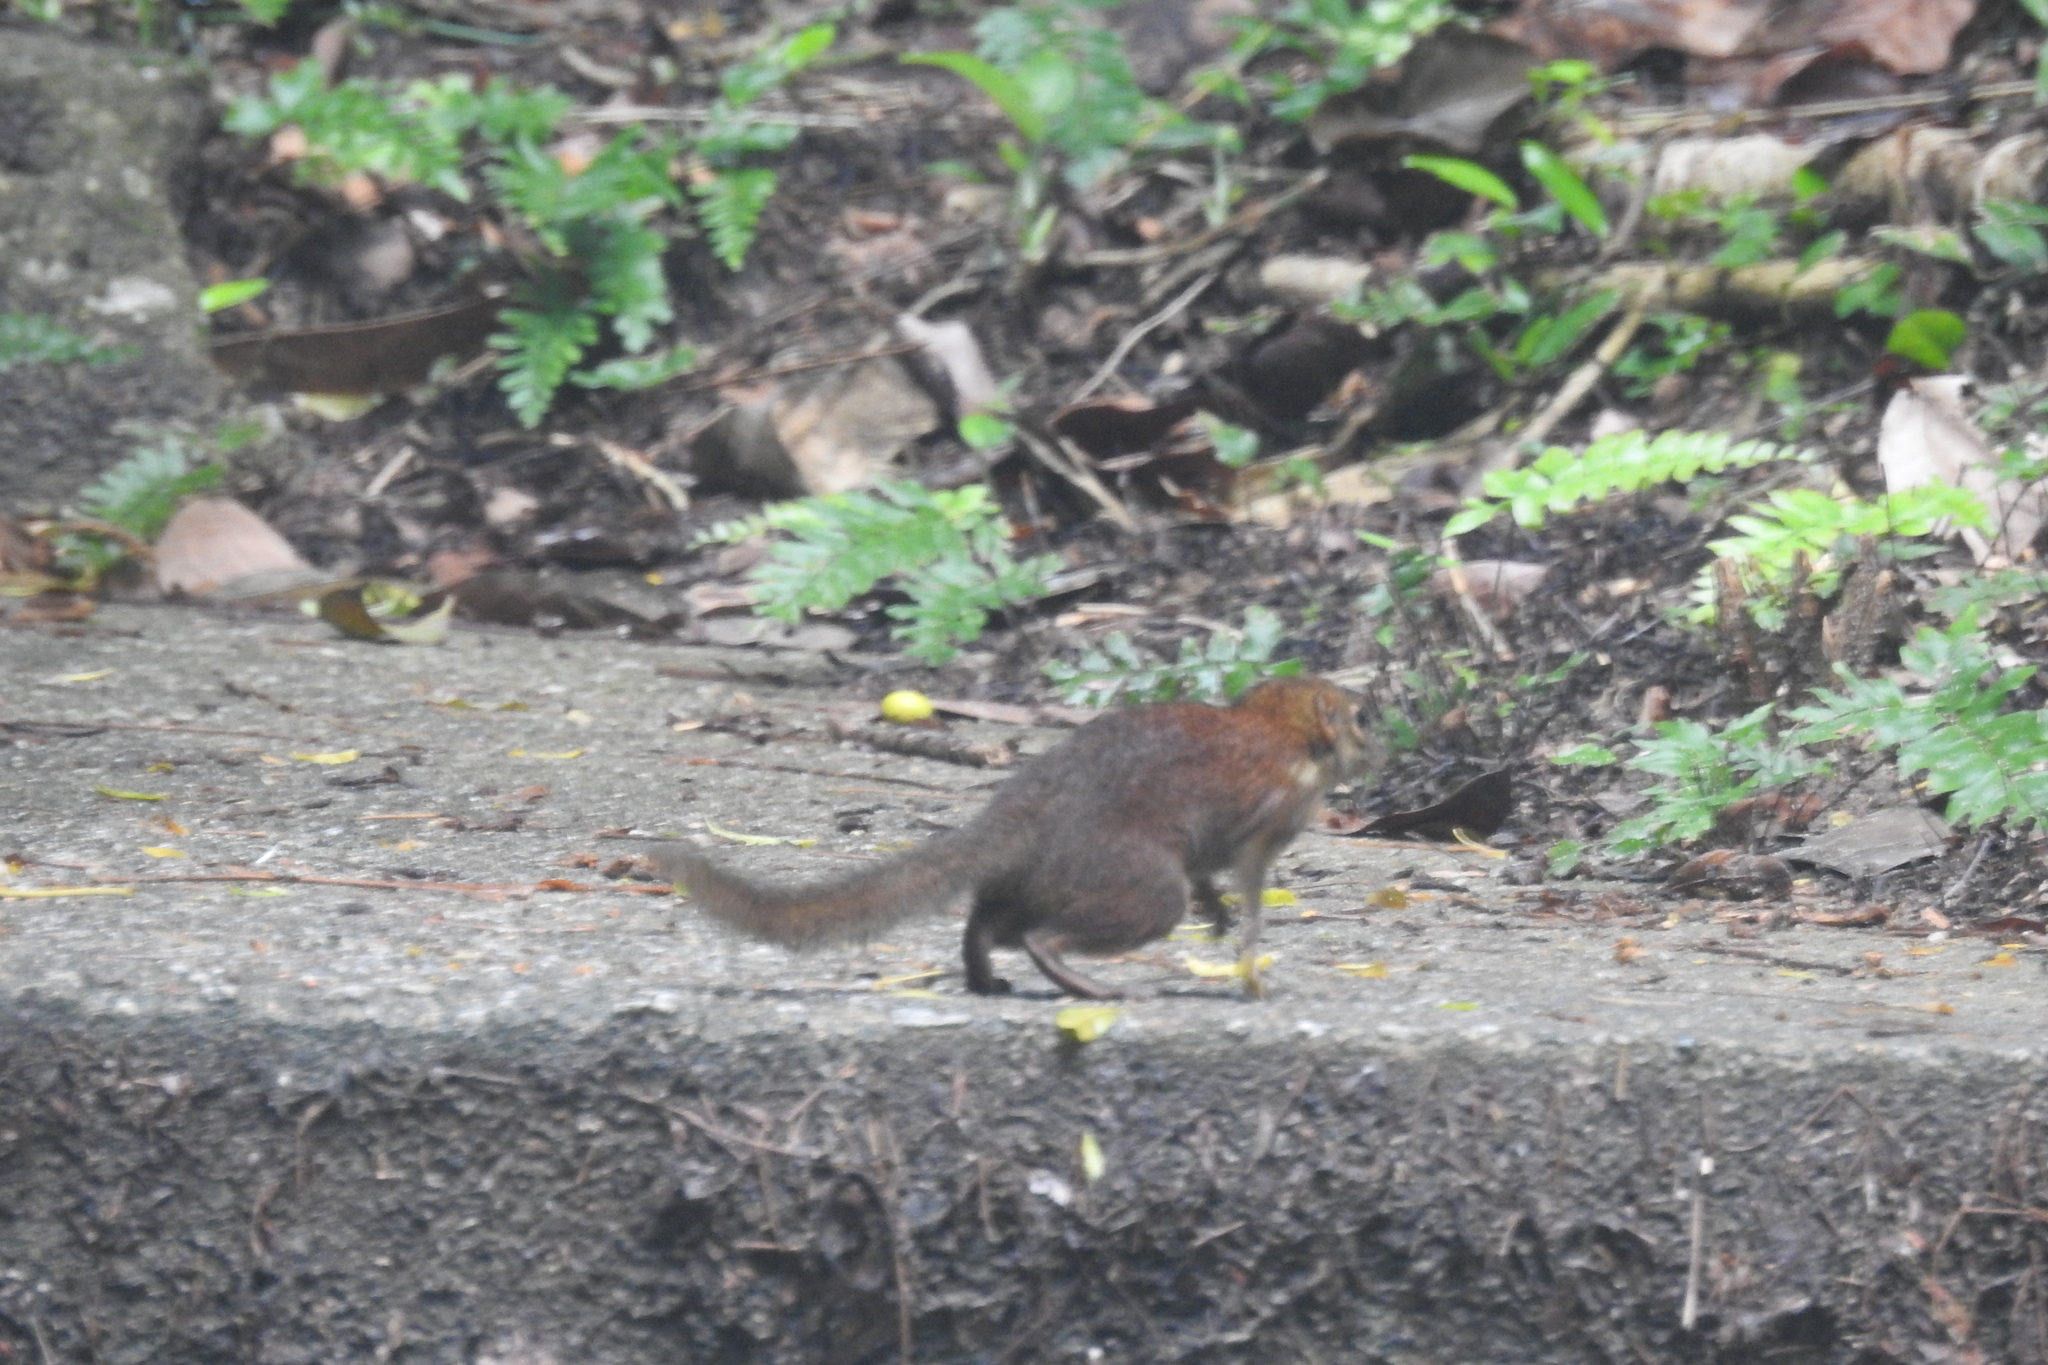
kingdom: Animalia
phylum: Chordata
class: Mammalia
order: Scandentia
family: Tupaiidae
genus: Tupaia
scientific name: Tupaia glis
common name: Common treeshrew
